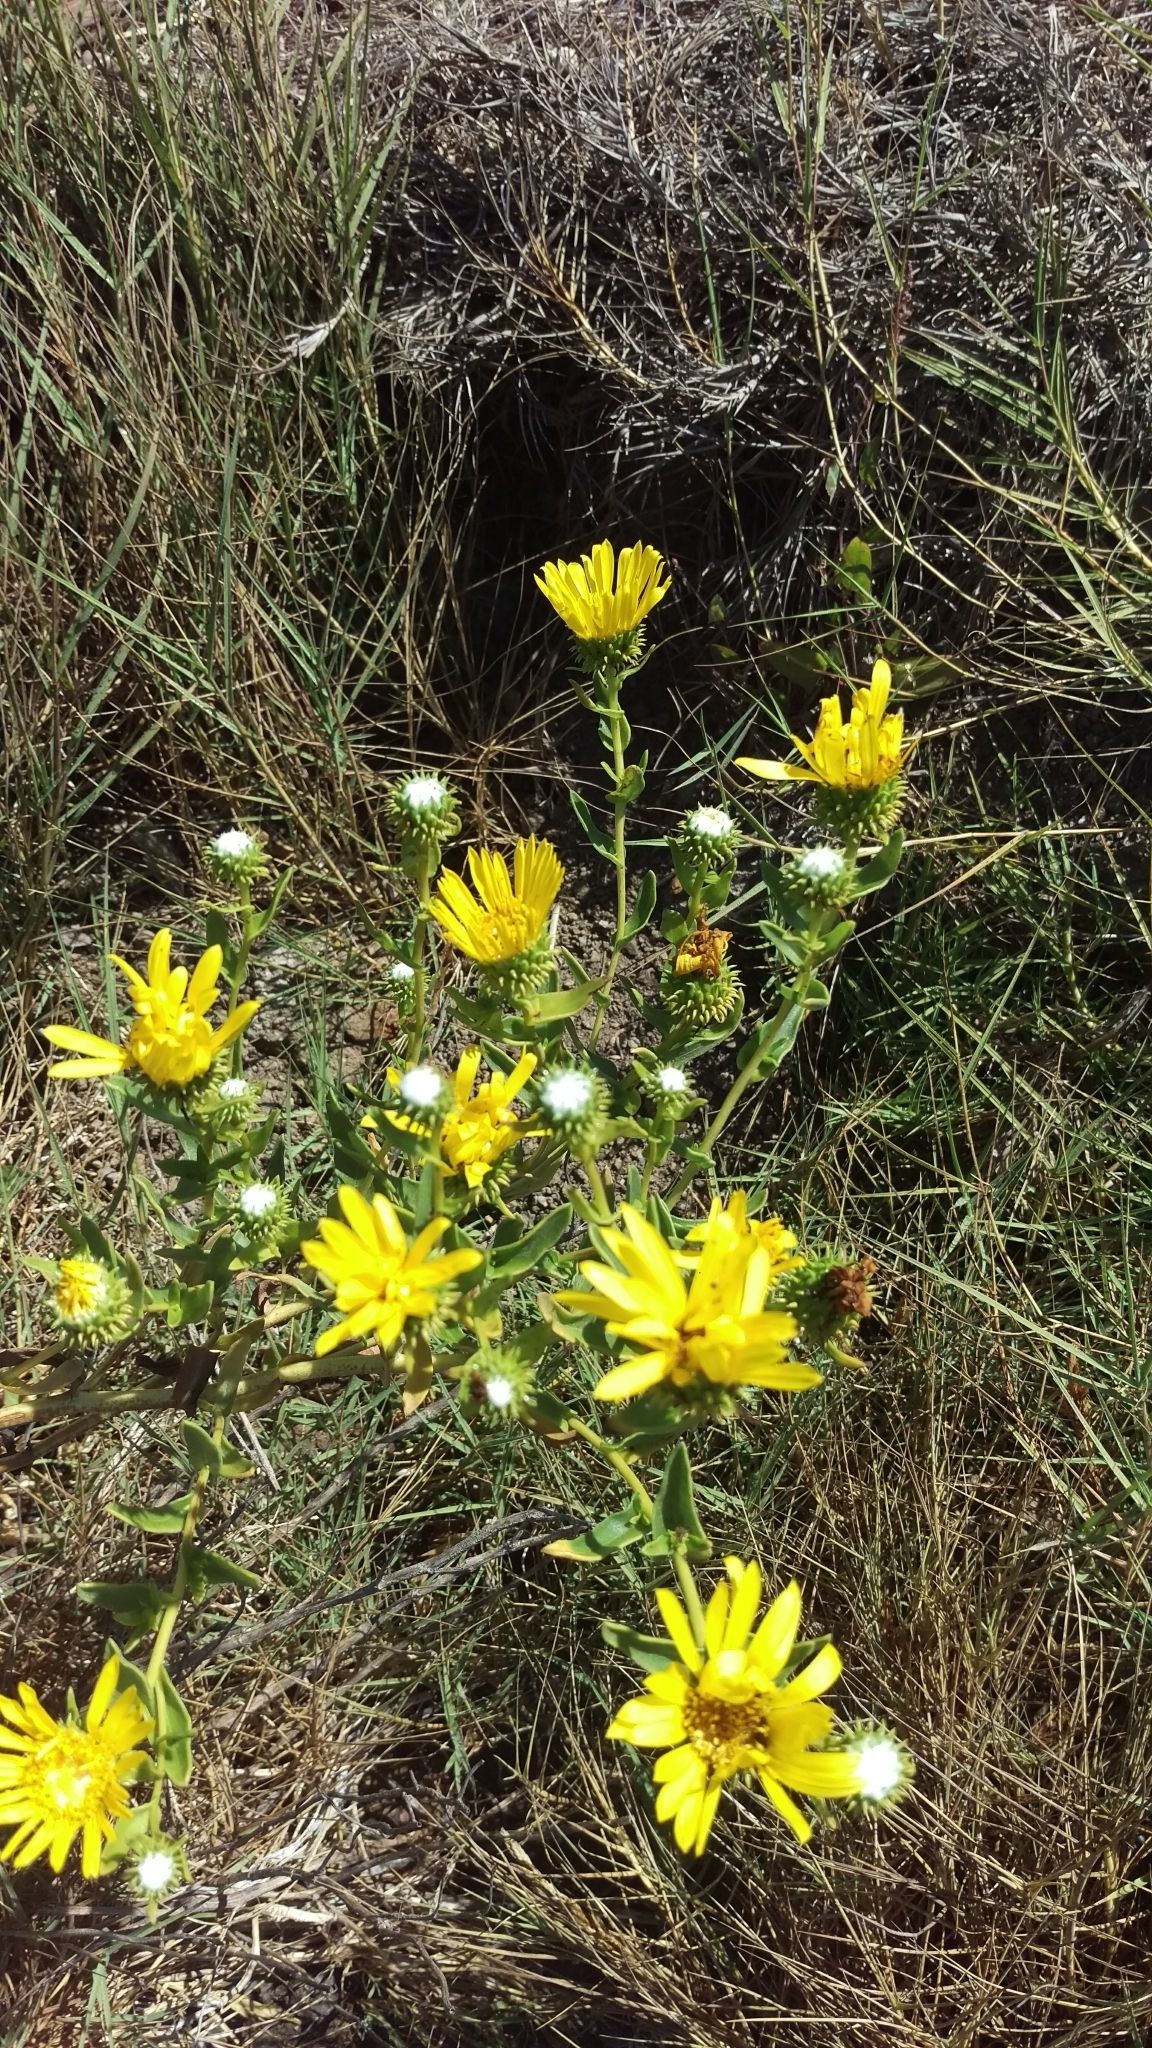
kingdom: Plantae
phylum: Tracheophyta
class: Magnoliopsida
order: Asterales
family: Asteraceae
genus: Grindelia
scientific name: Grindelia hirsutula
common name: Hairy gumweed
